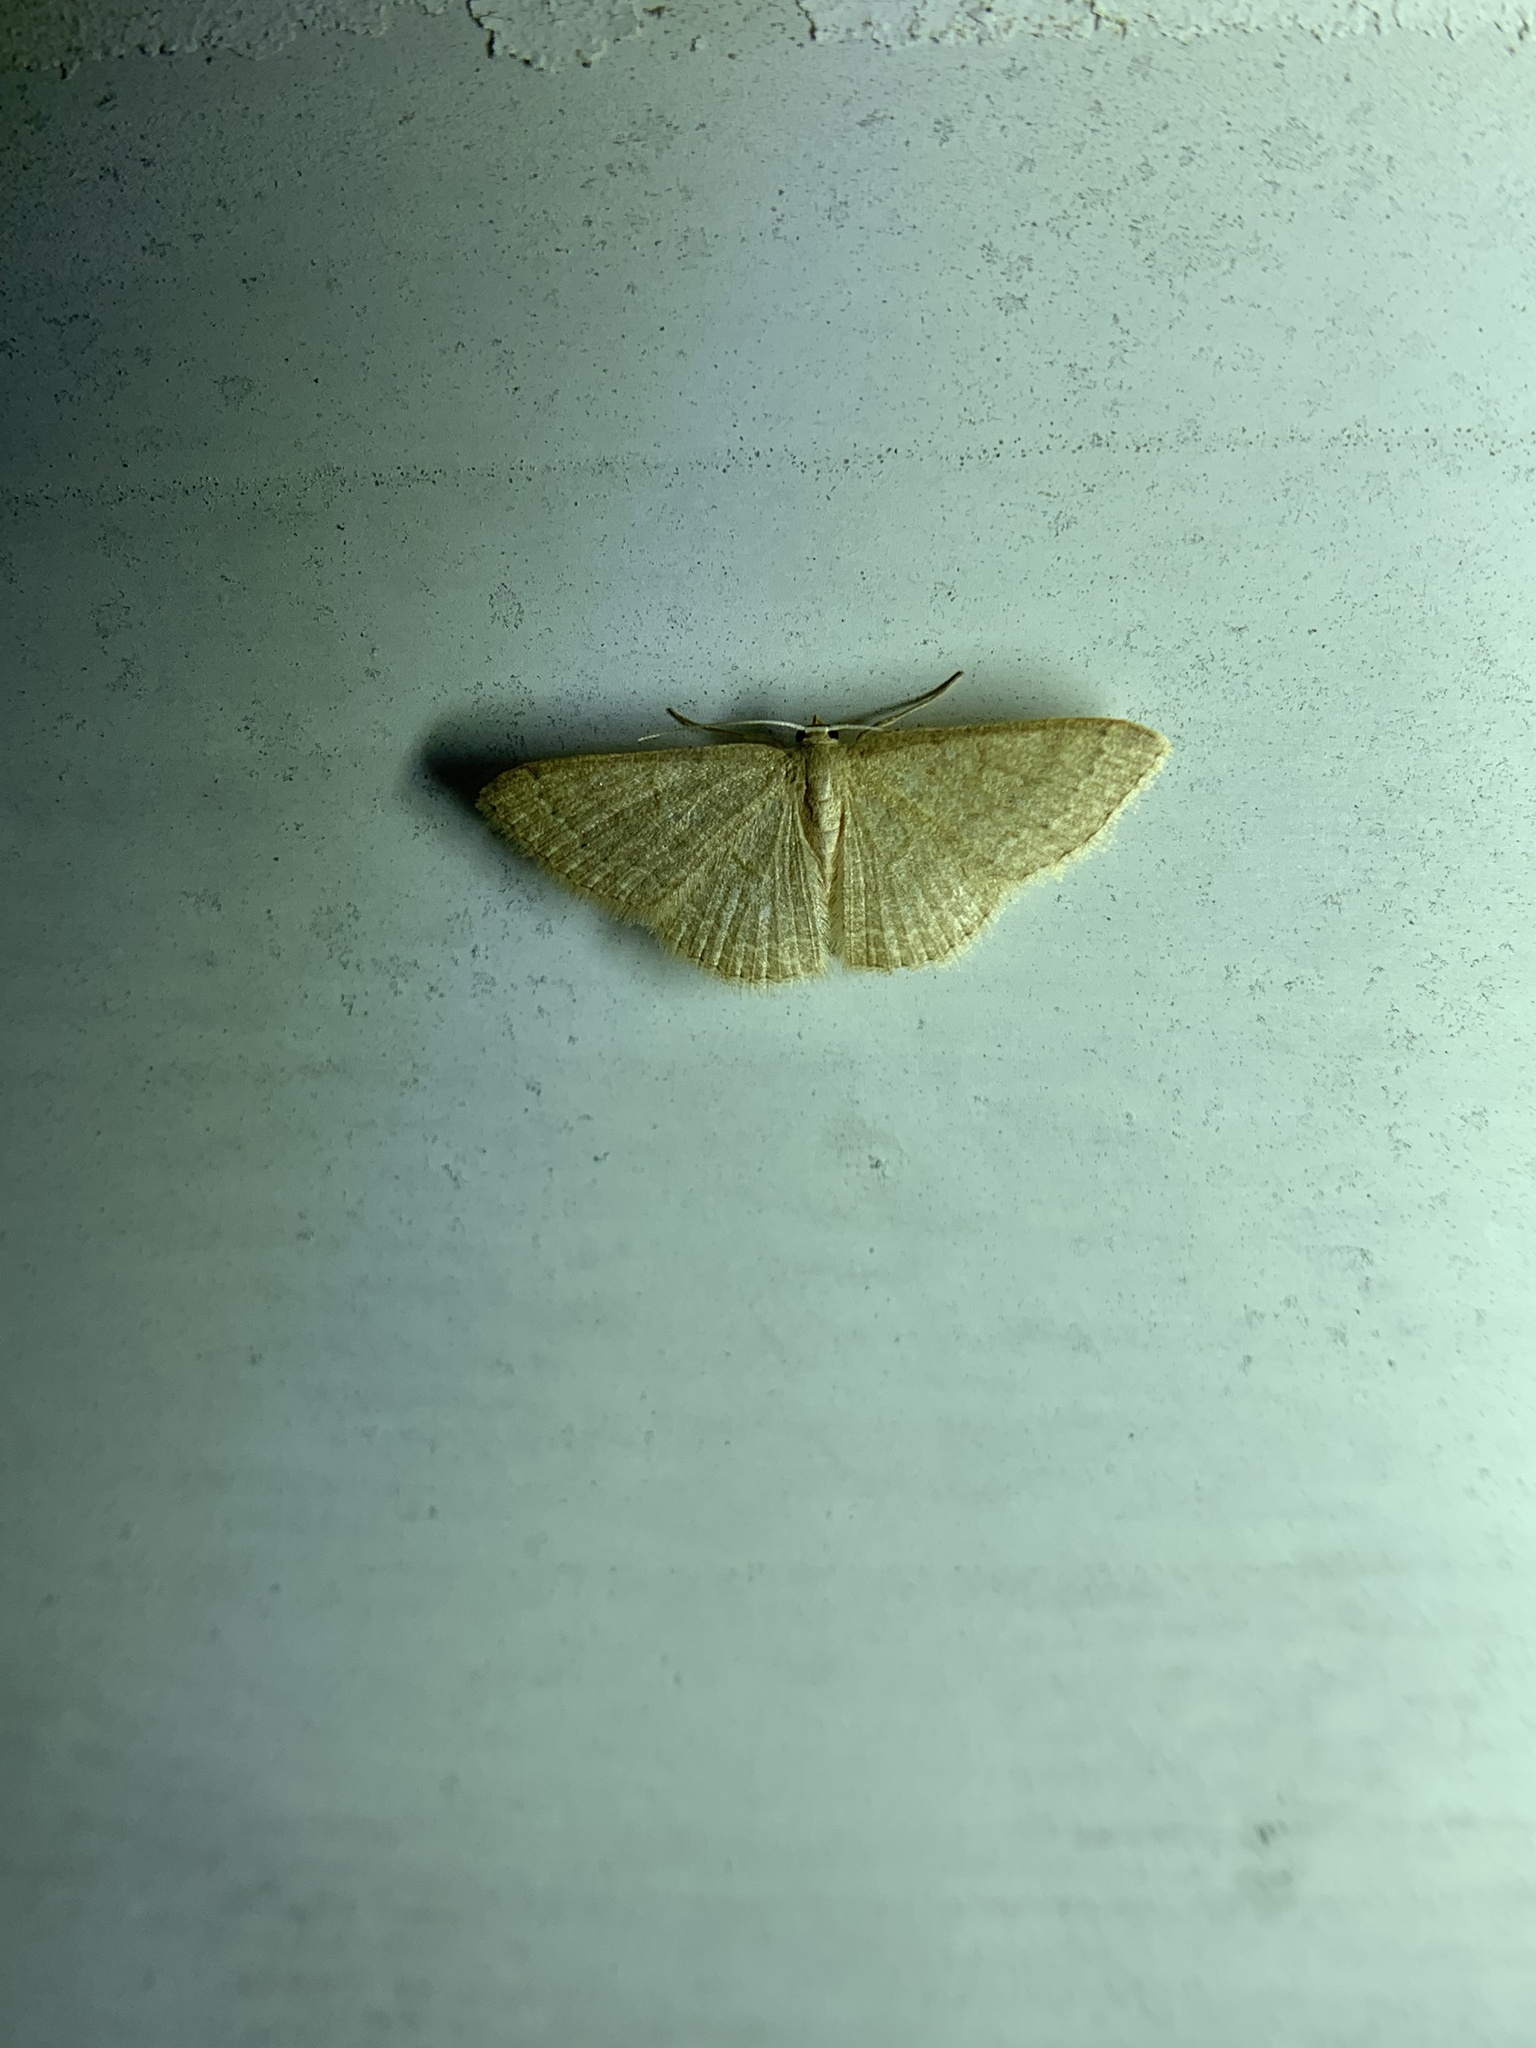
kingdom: Animalia
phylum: Arthropoda
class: Insecta
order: Lepidoptera
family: Geometridae
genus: Pleuroprucha
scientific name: Pleuroprucha insulsaria
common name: Common tan wave
